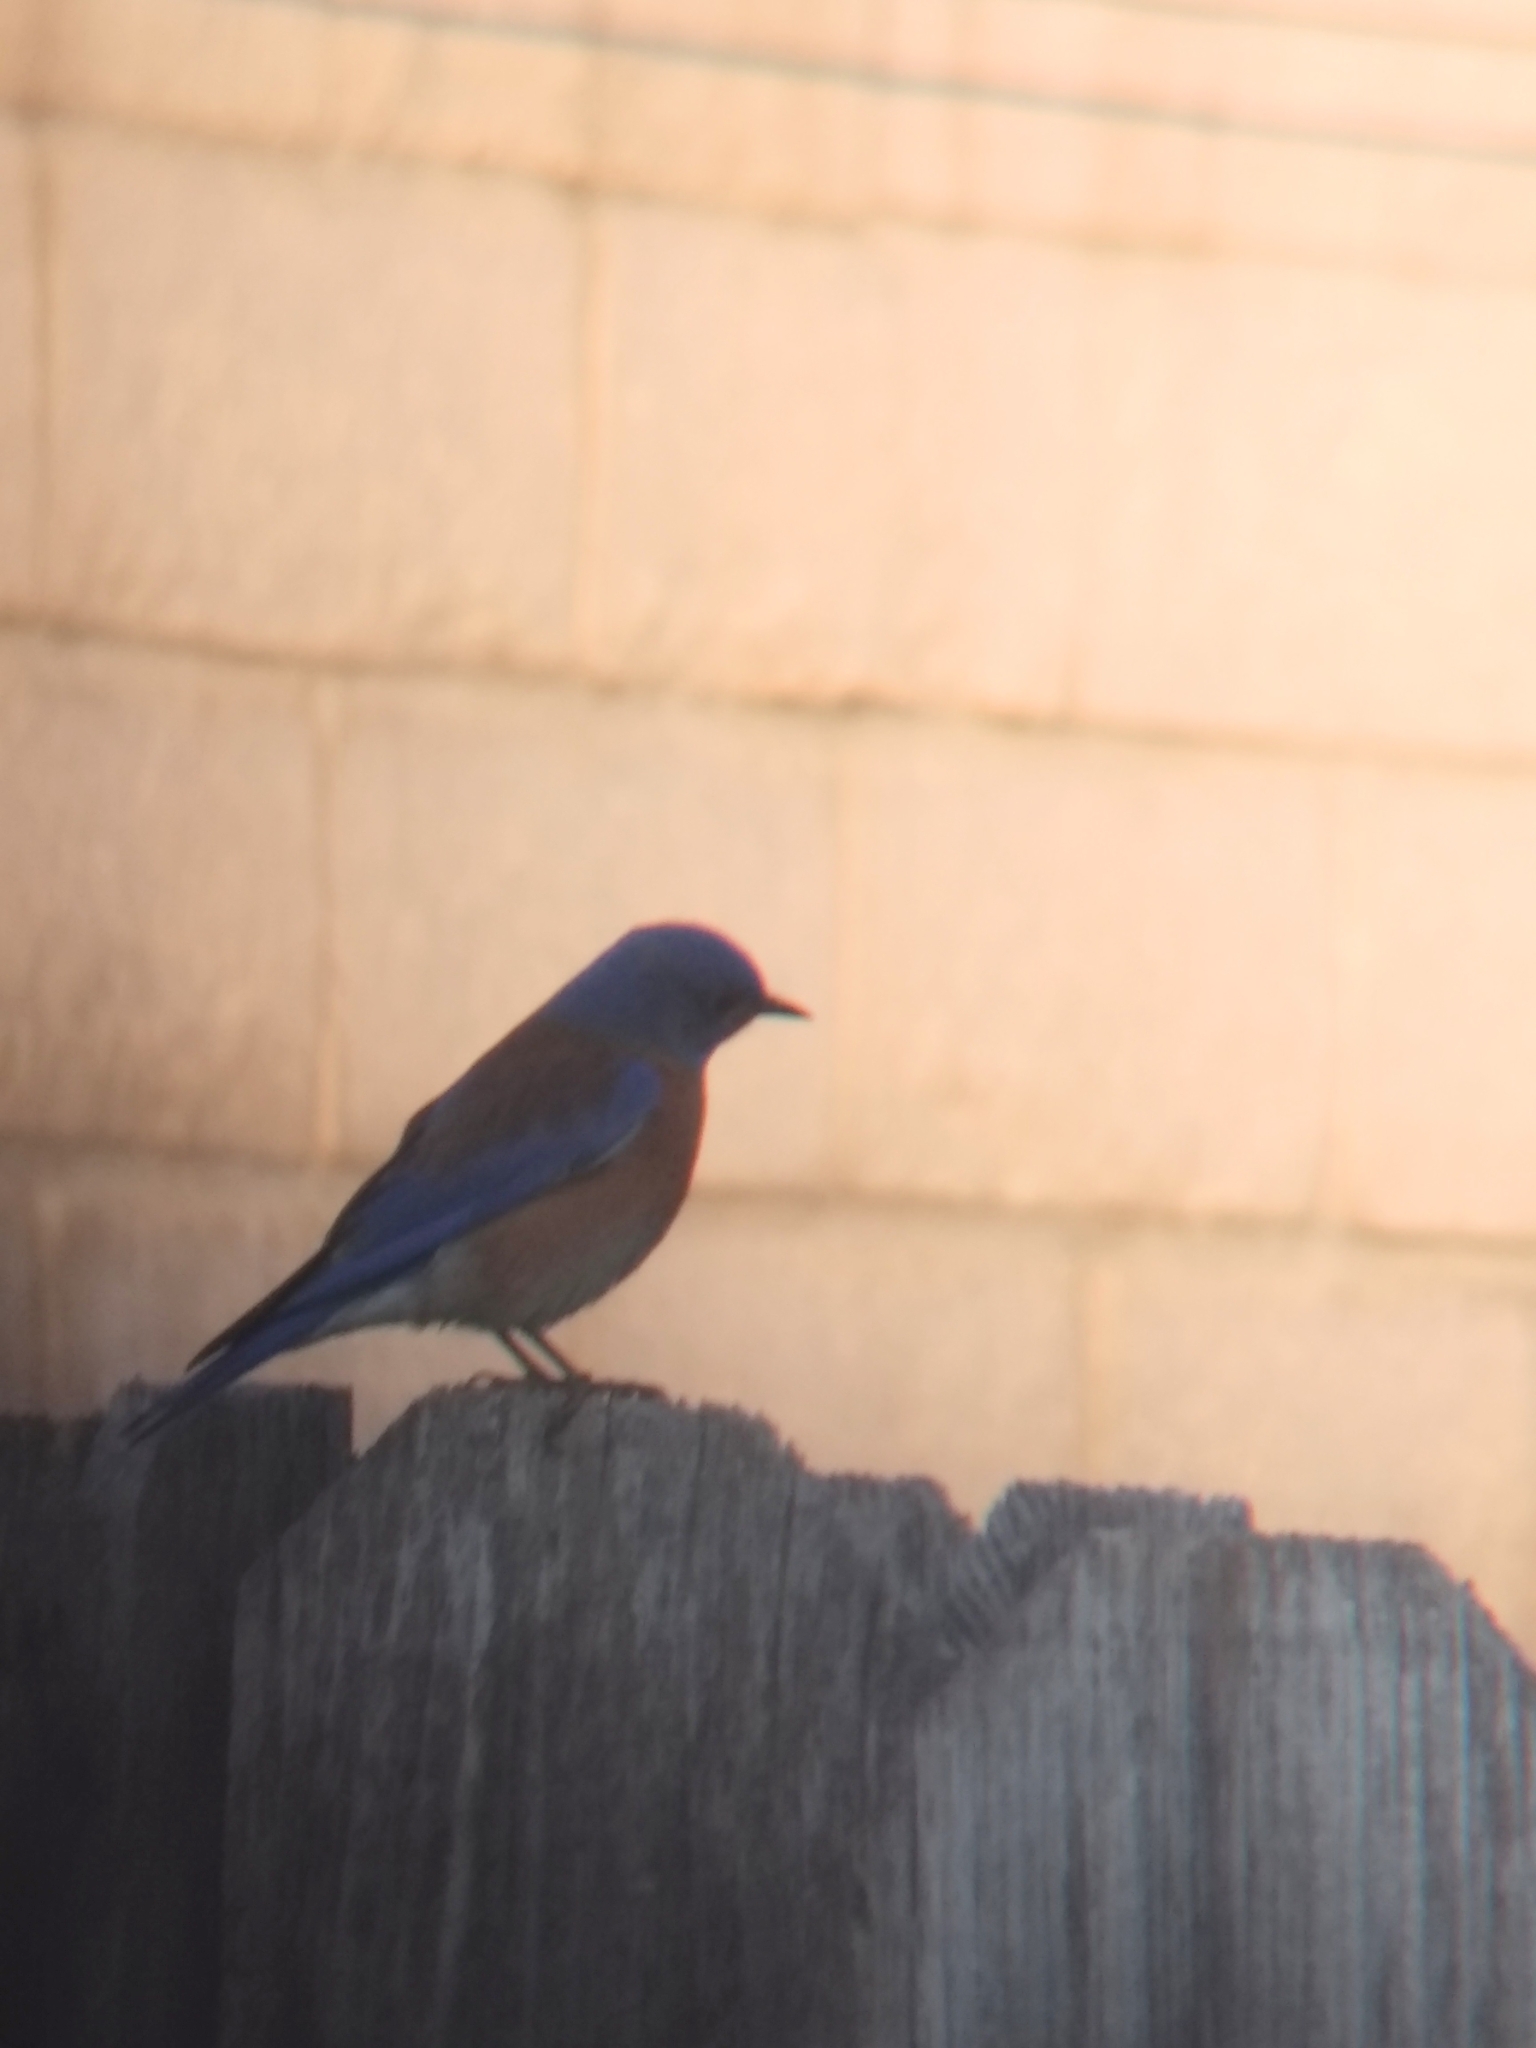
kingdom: Animalia
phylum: Chordata
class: Aves
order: Passeriformes
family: Turdidae
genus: Sialia
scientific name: Sialia mexicana
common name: Western bluebird
